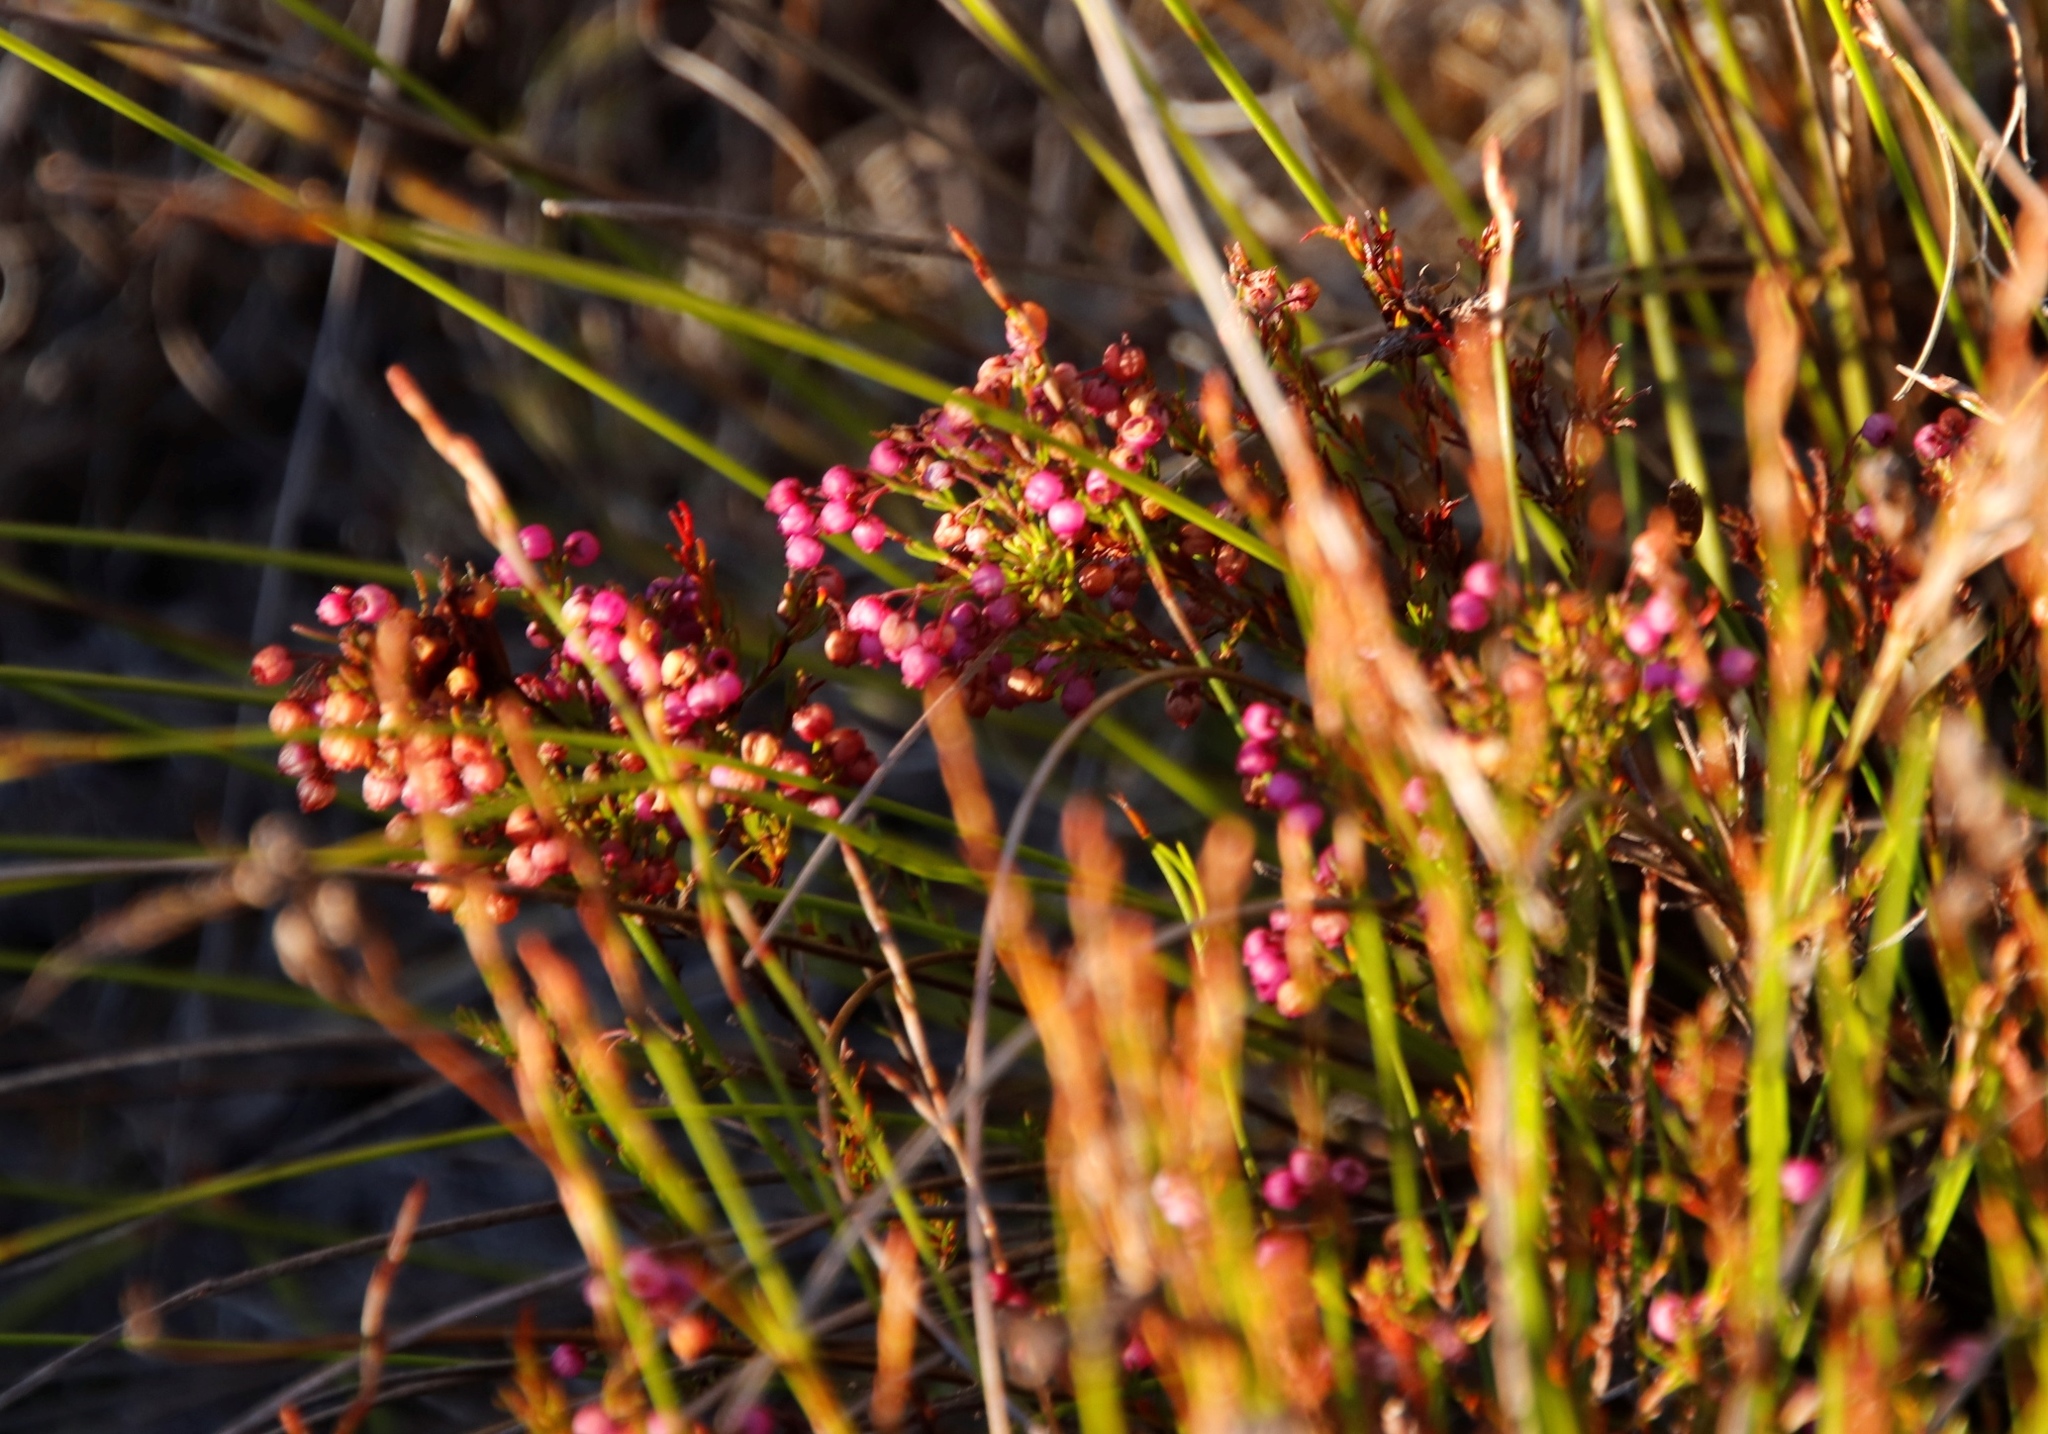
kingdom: Plantae
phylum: Tracheophyta
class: Magnoliopsida
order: Ericales
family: Ericaceae
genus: Erica
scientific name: Erica multumbellifera
